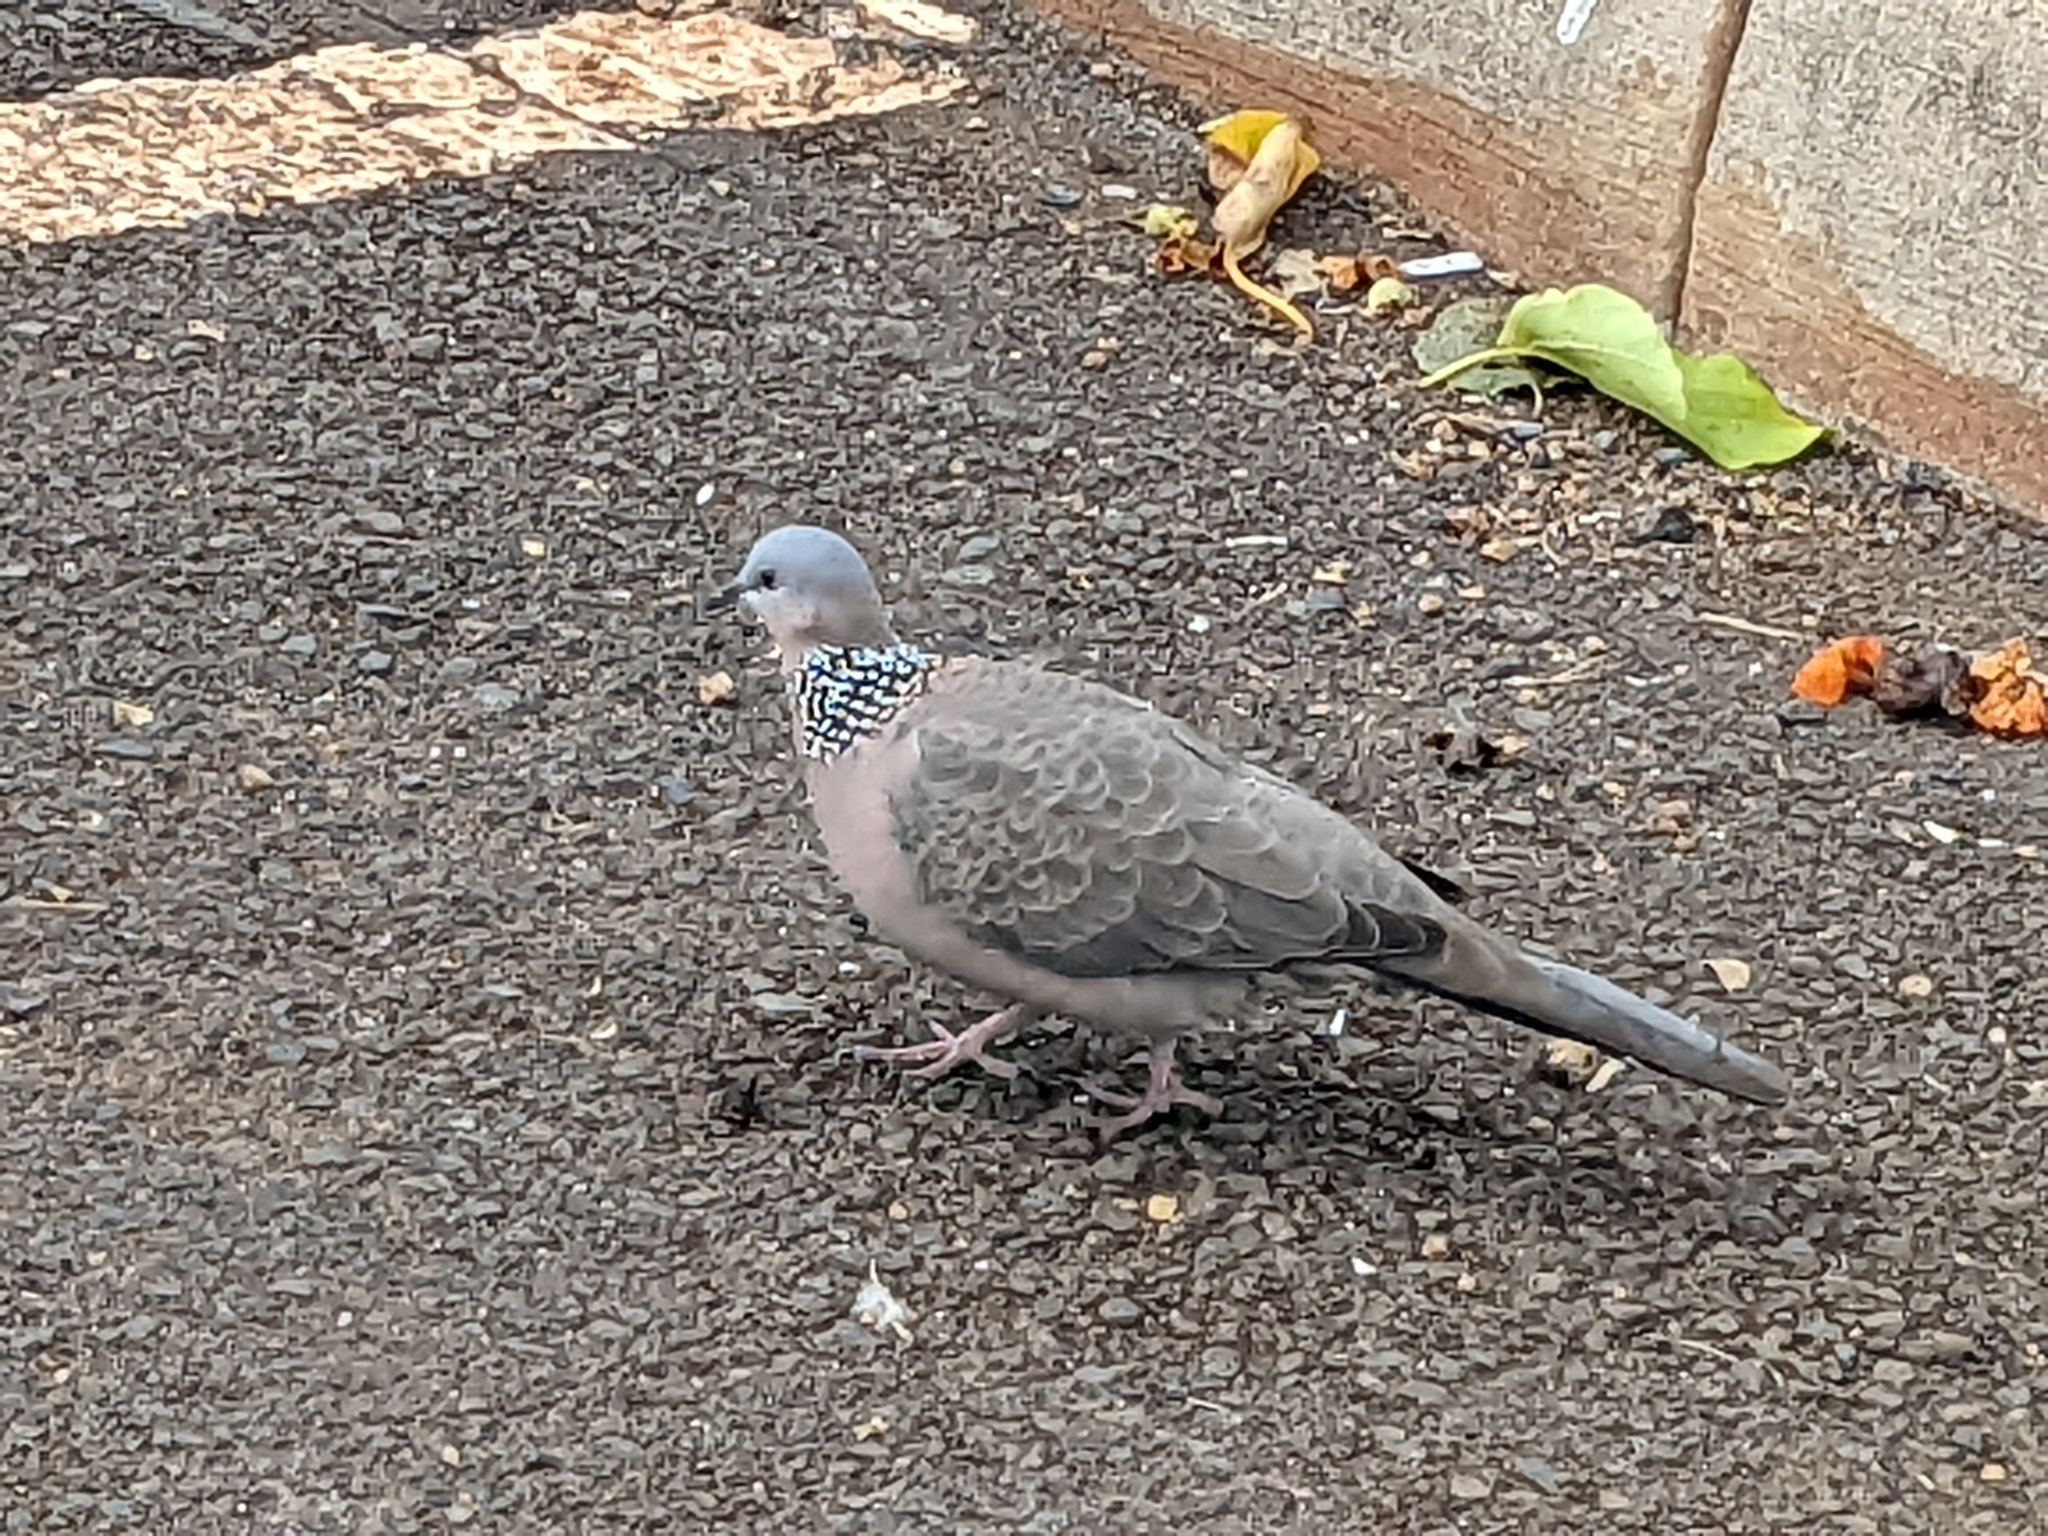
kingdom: Animalia
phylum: Chordata
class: Aves
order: Columbiformes
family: Columbidae
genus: Spilopelia
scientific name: Spilopelia chinensis
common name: Spotted dove
